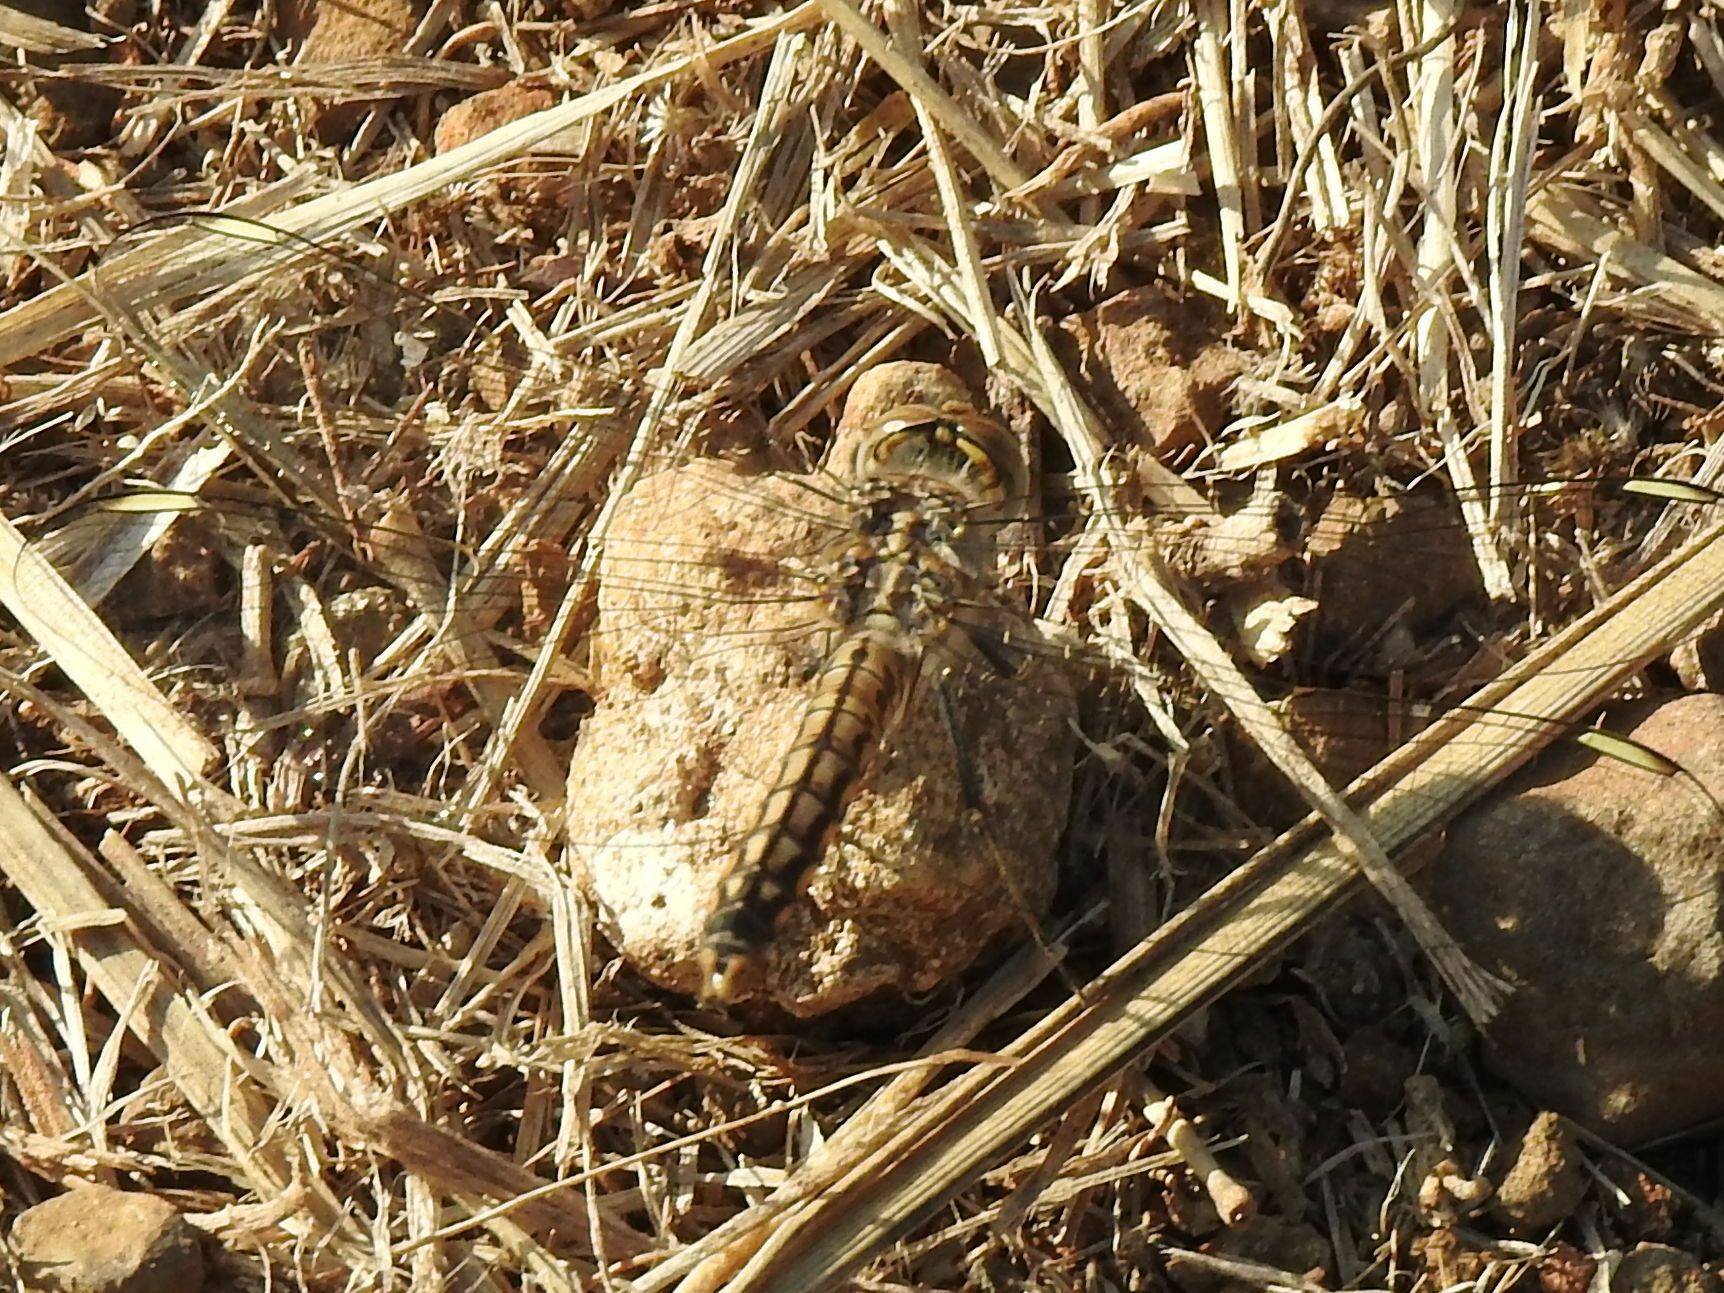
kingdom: Animalia
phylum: Arthropoda
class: Insecta
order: Odonata
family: Libellulidae
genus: Brachythemis
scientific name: Brachythemis leucosticta
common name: Banded groundling
